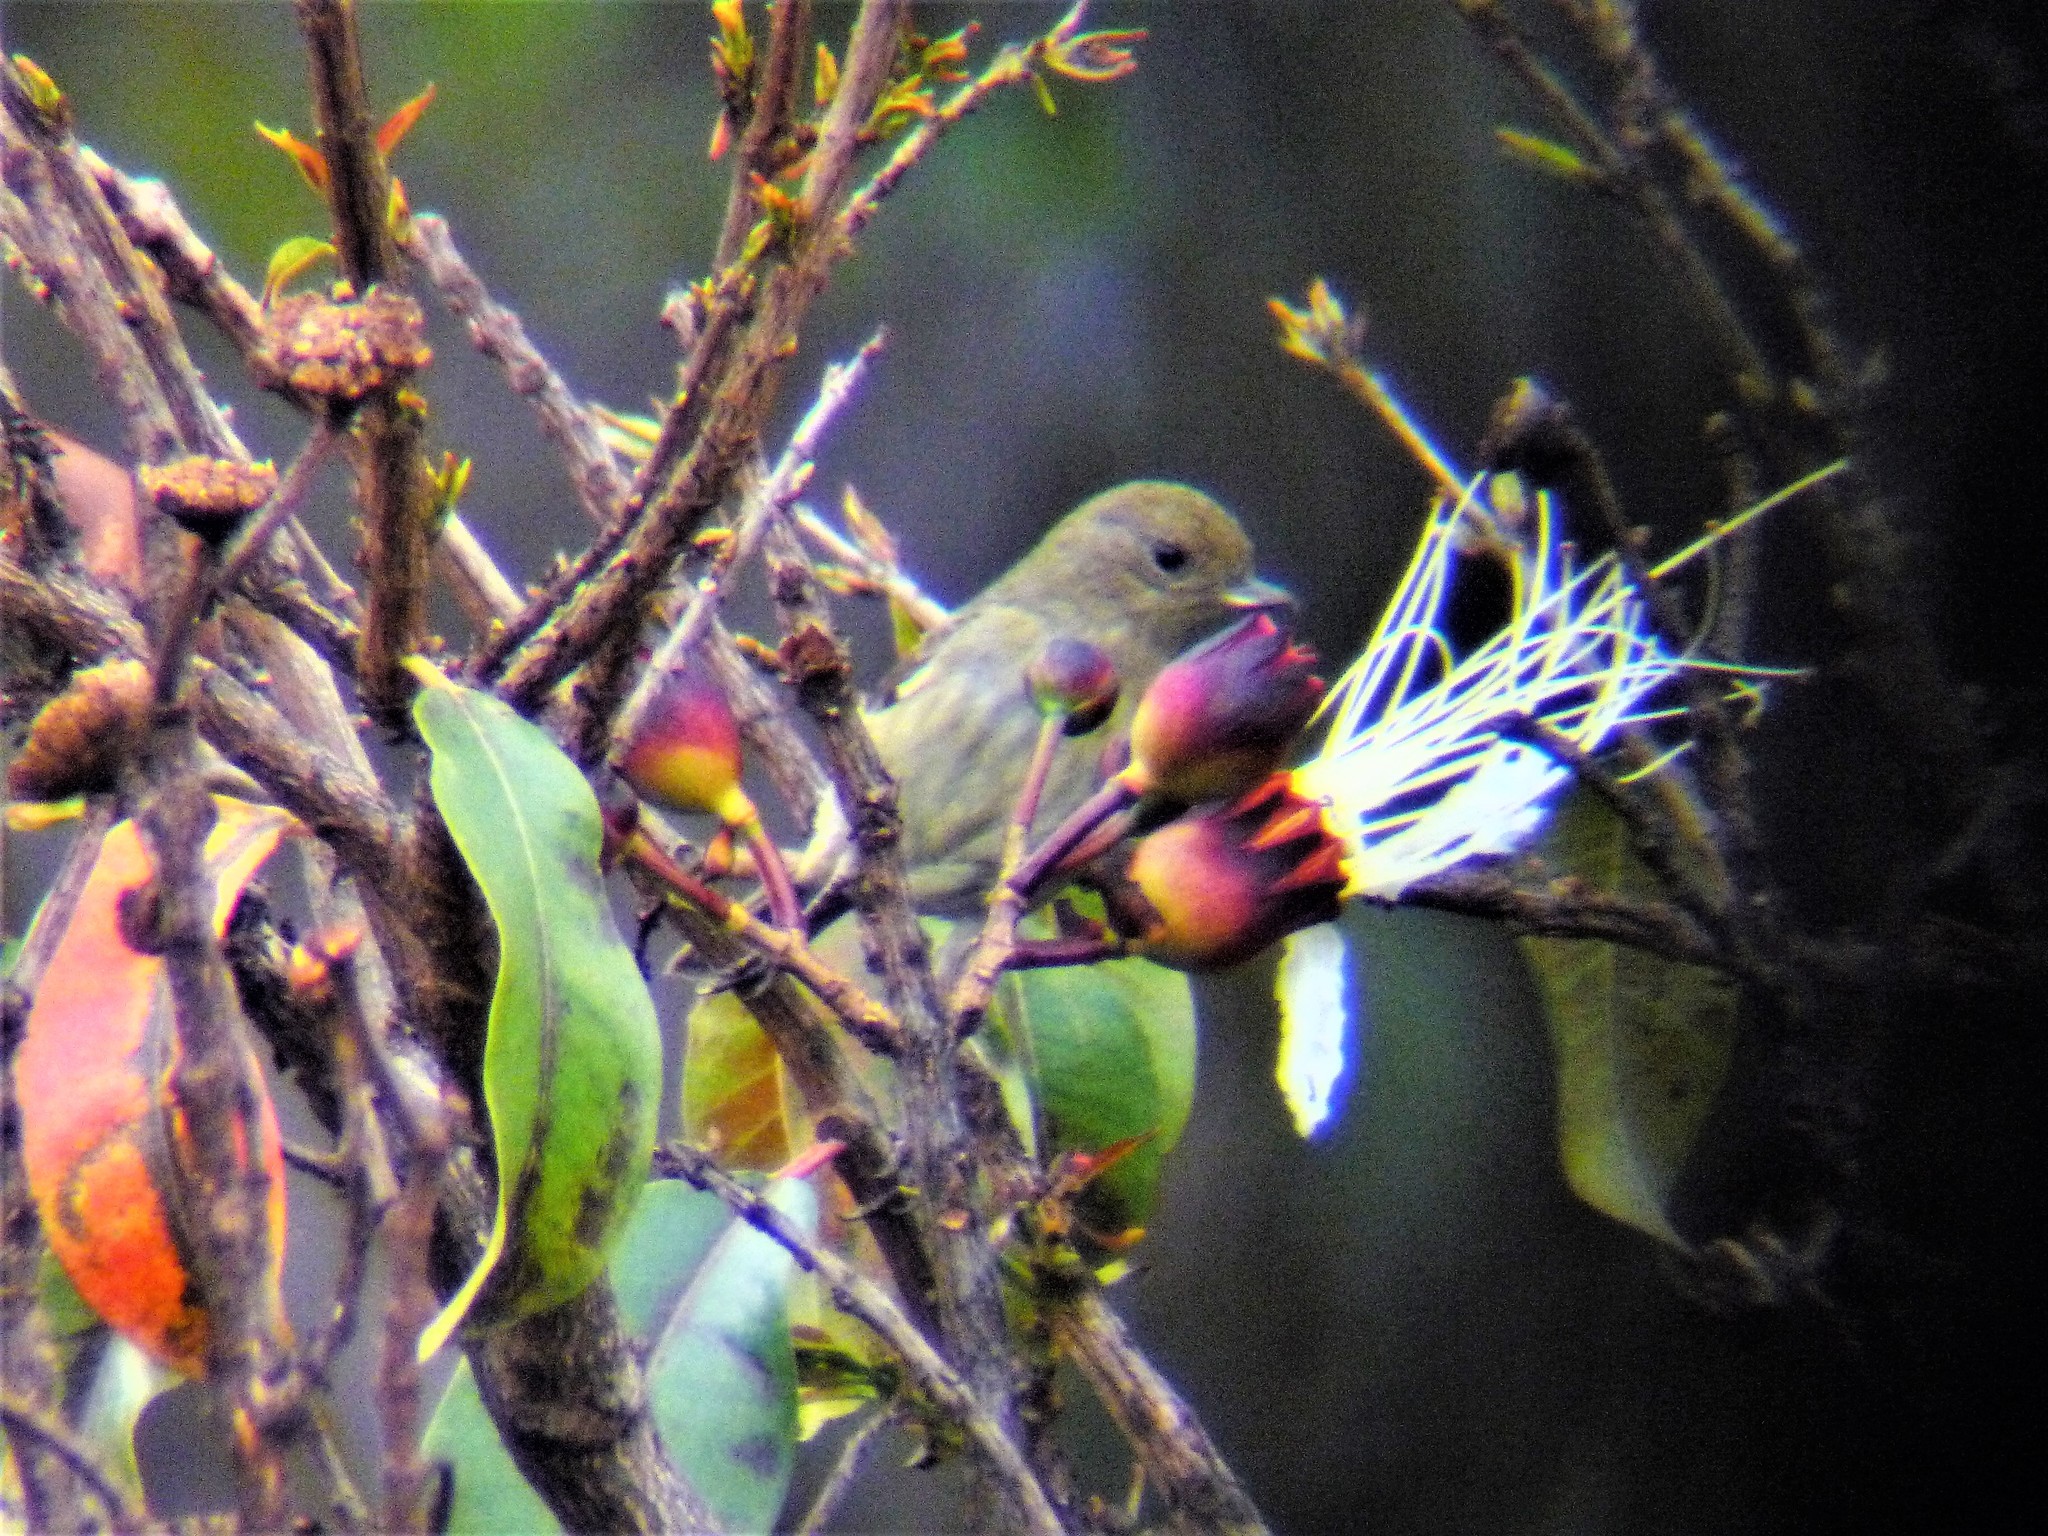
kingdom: Plantae
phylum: Tracheophyta
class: Magnoliopsida
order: Myrtales
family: Lythraceae
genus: Lafoensia
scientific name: Lafoensia acuminata
